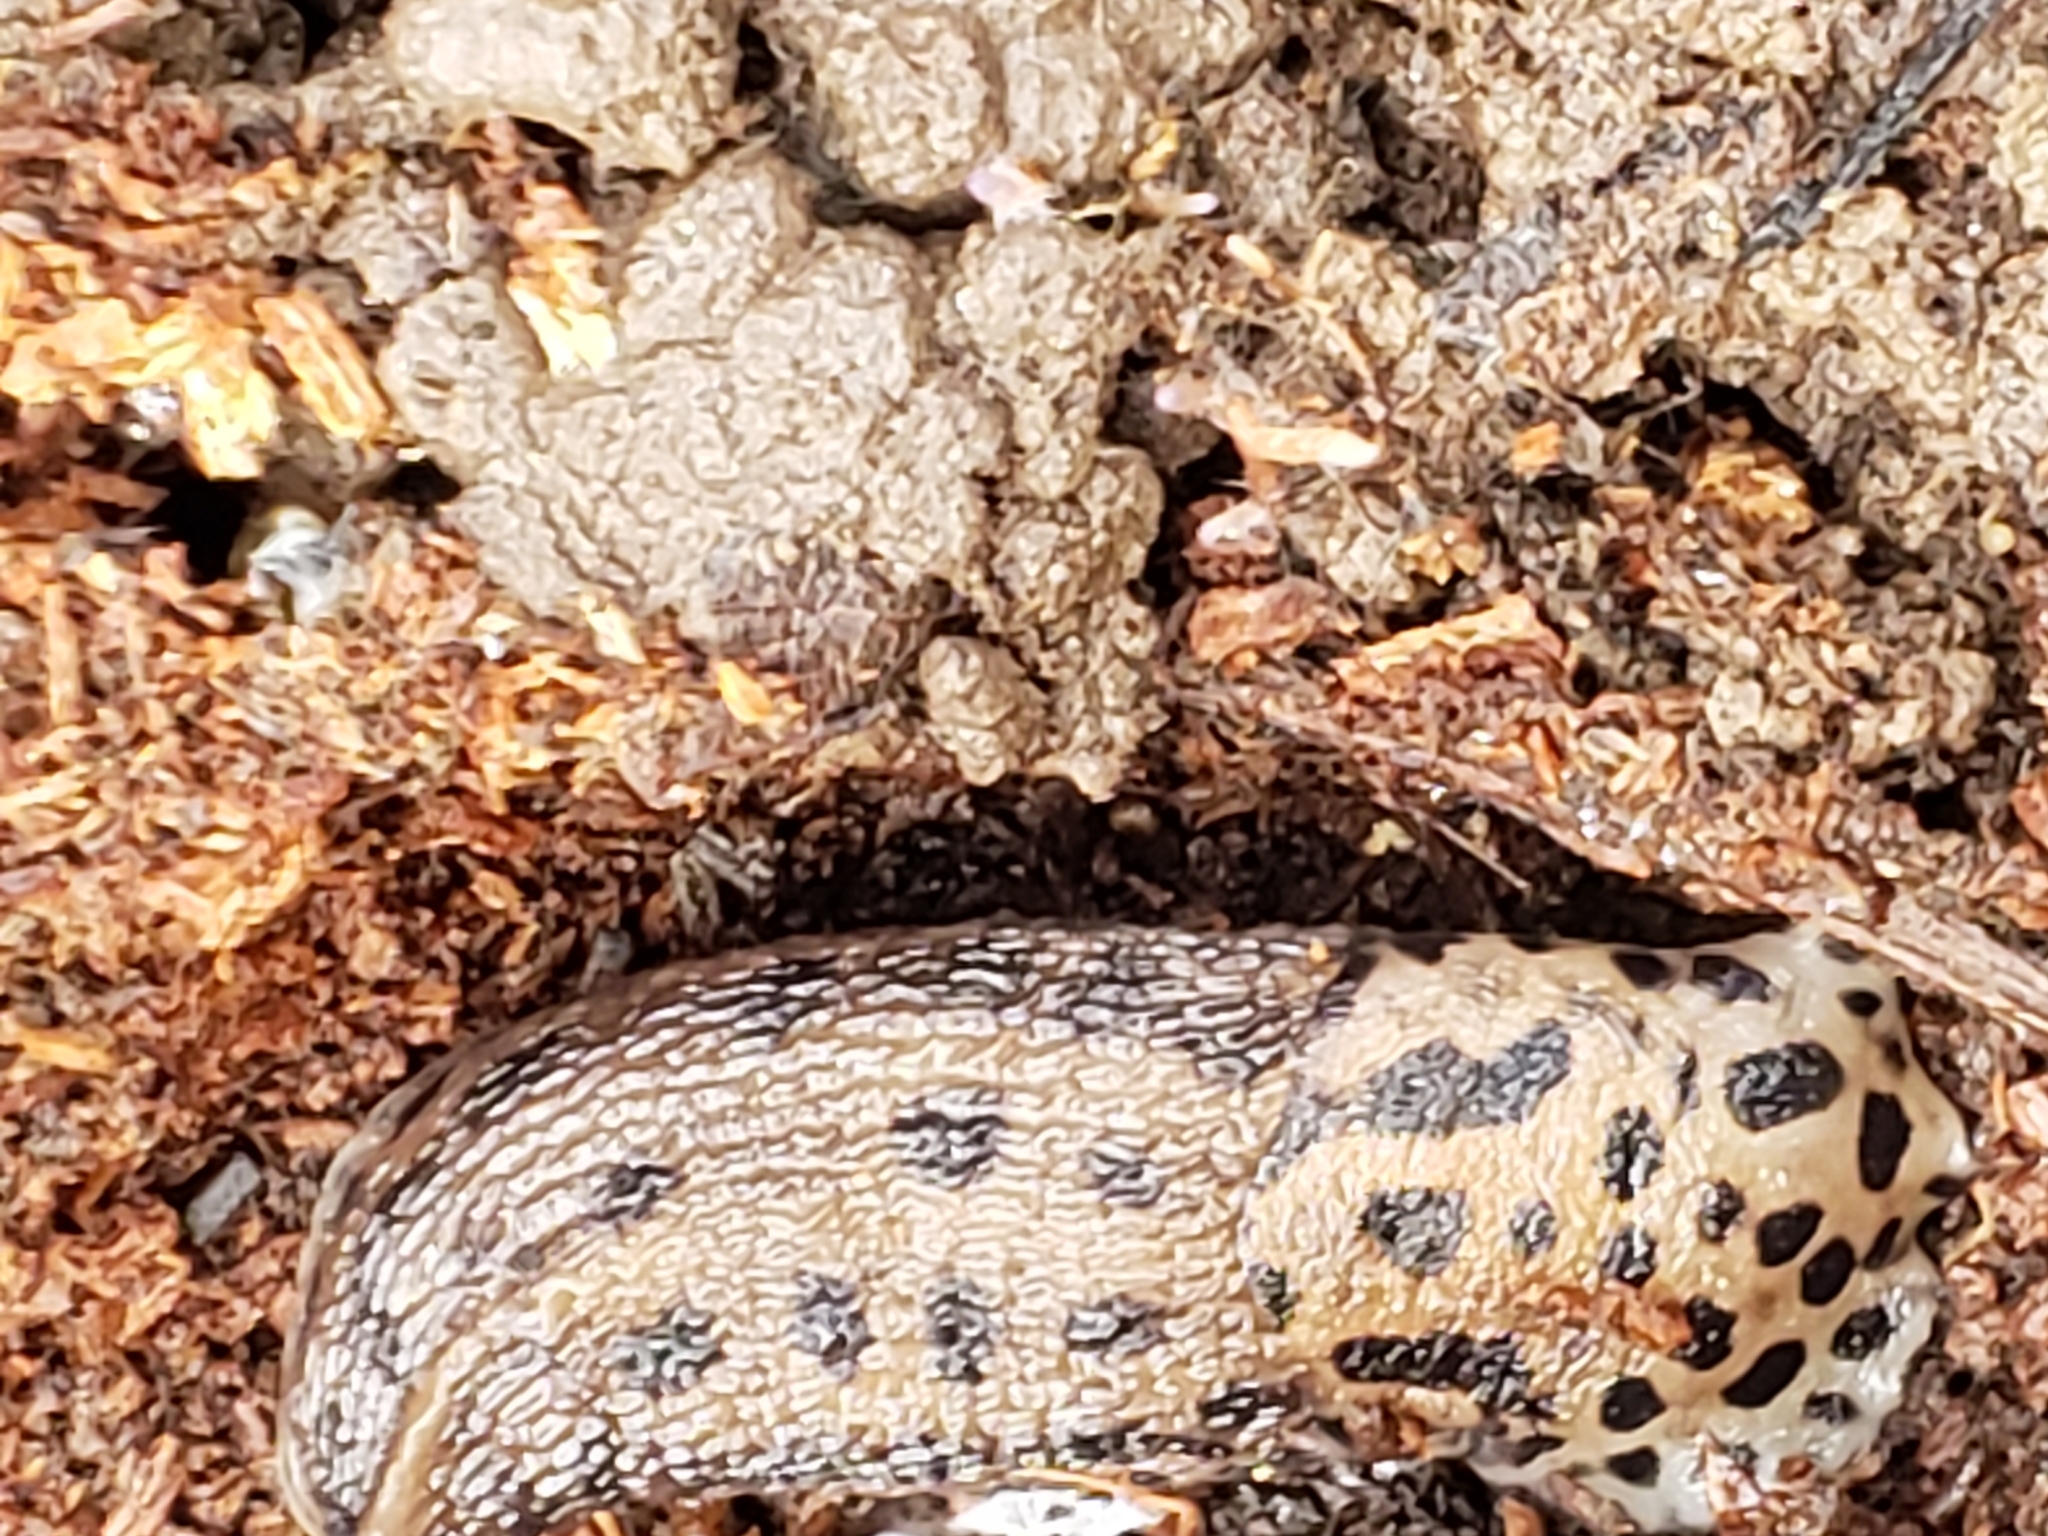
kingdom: Animalia
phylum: Mollusca
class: Gastropoda
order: Stylommatophora
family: Limacidae
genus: Limax
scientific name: Limax maximus
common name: Great grey slug
